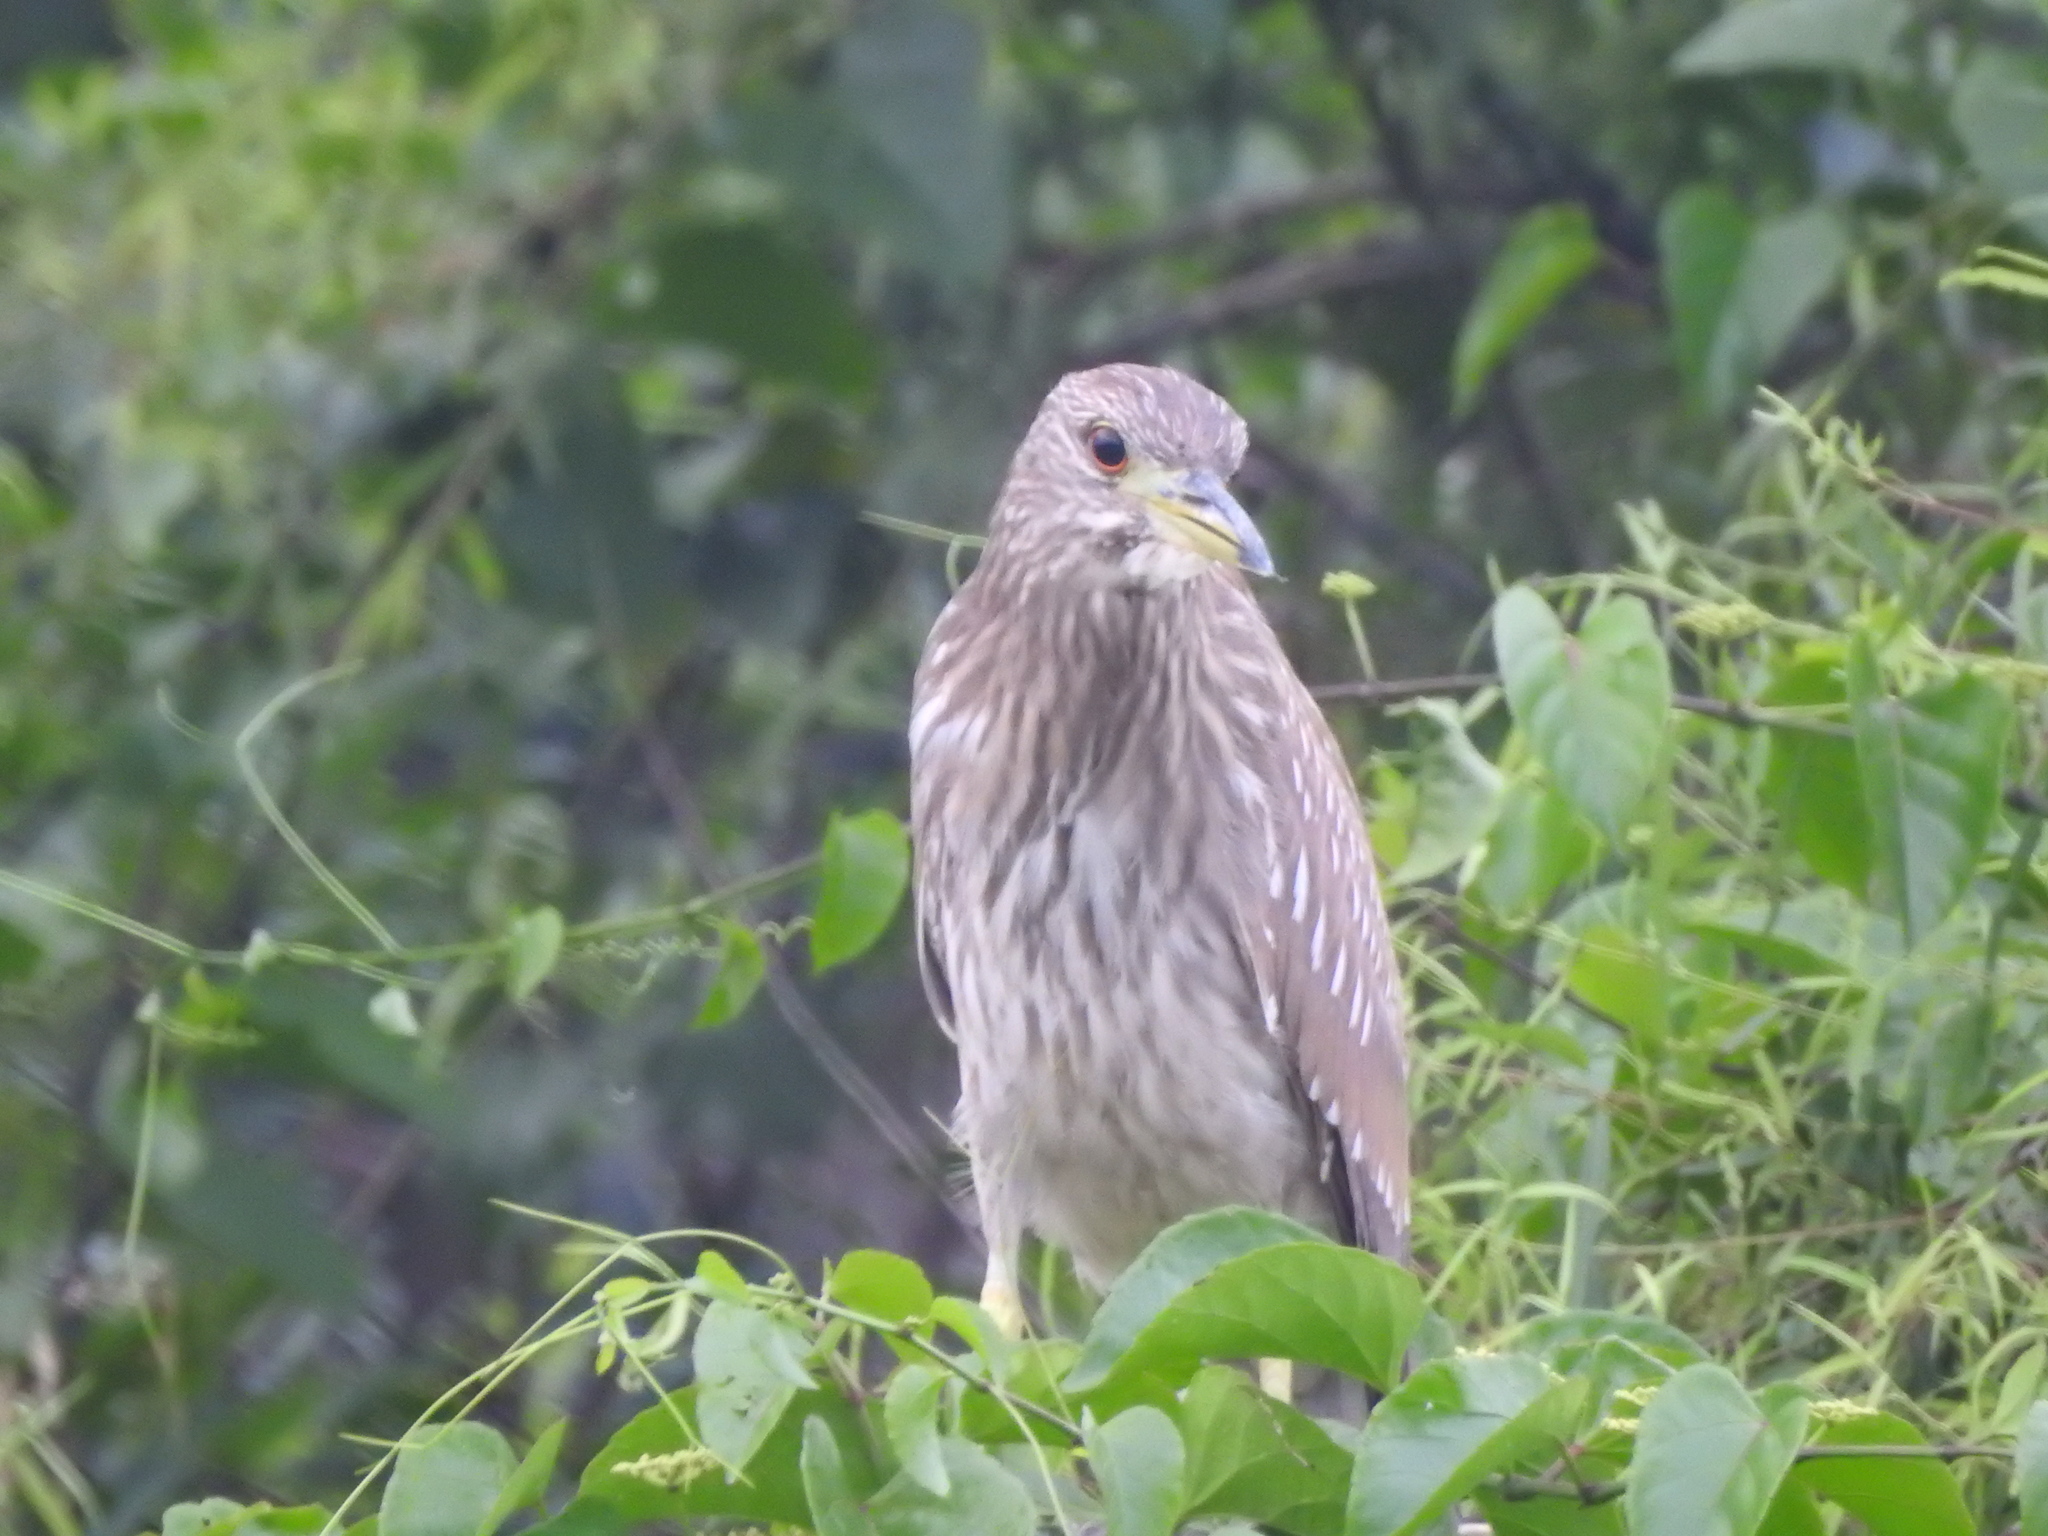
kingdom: Animalia
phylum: Chordata
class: Aves
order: Pelecaniformes
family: Ardeidae
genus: Nycticorax
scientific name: Nycticorax nycticorax
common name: Black-crowned night heron
